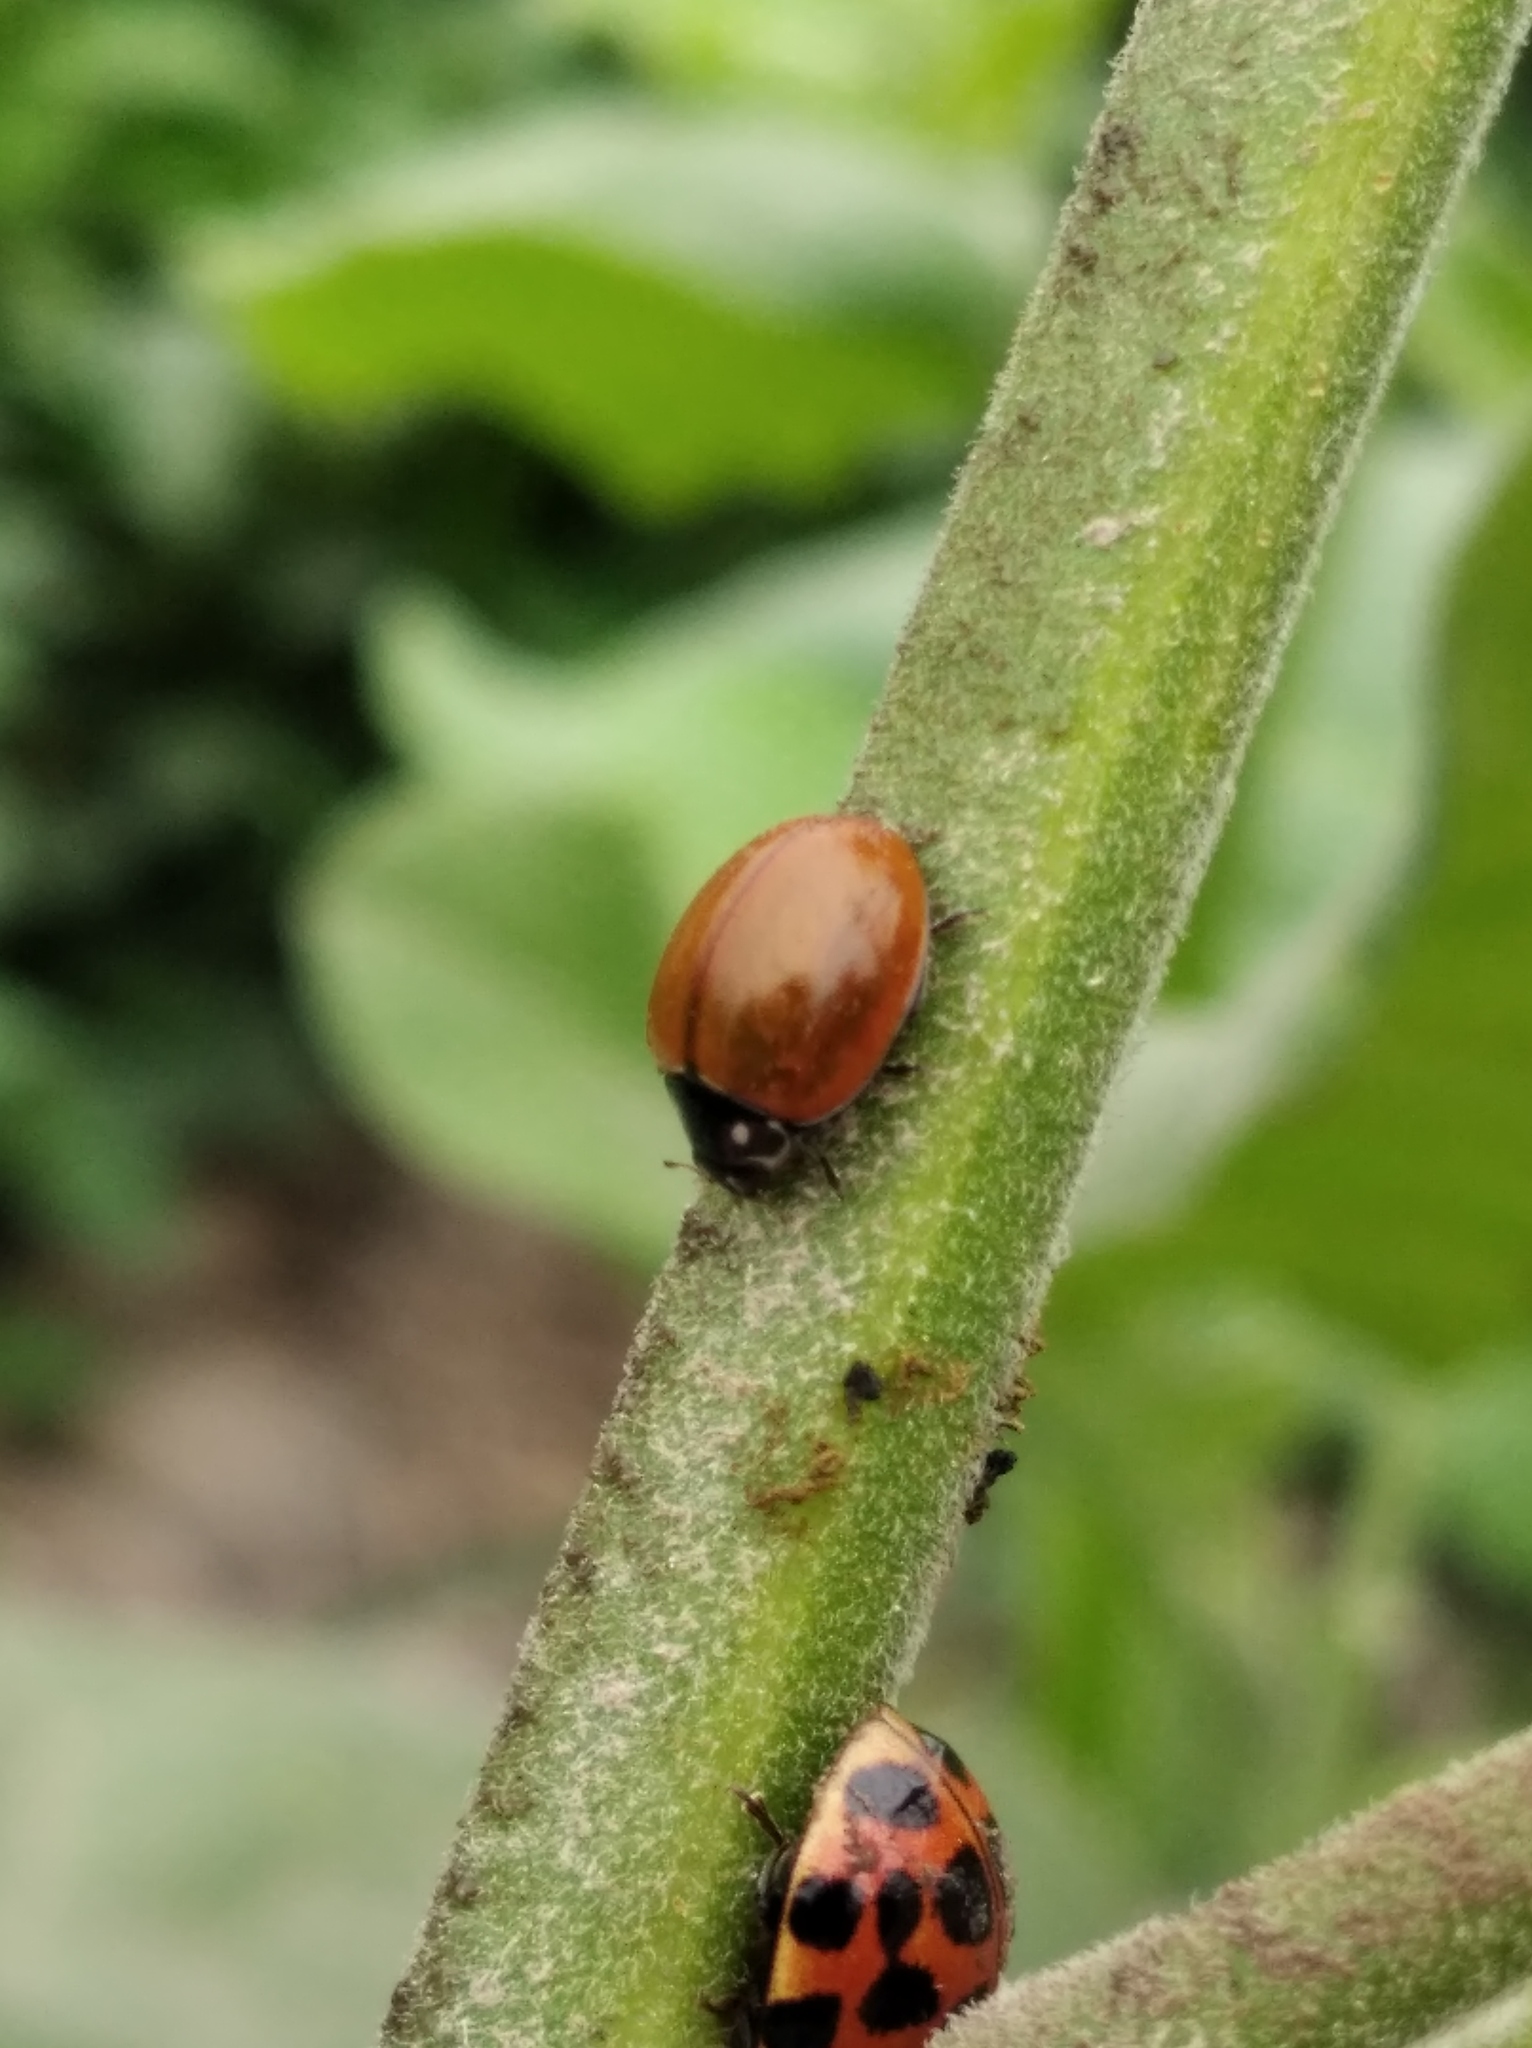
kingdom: Animalia
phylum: Arthropoda
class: Insecta
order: Coleoptera
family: Coccinellidae
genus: Cycloneda
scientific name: Cycloneda sanguinea
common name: Ladybird beetle
